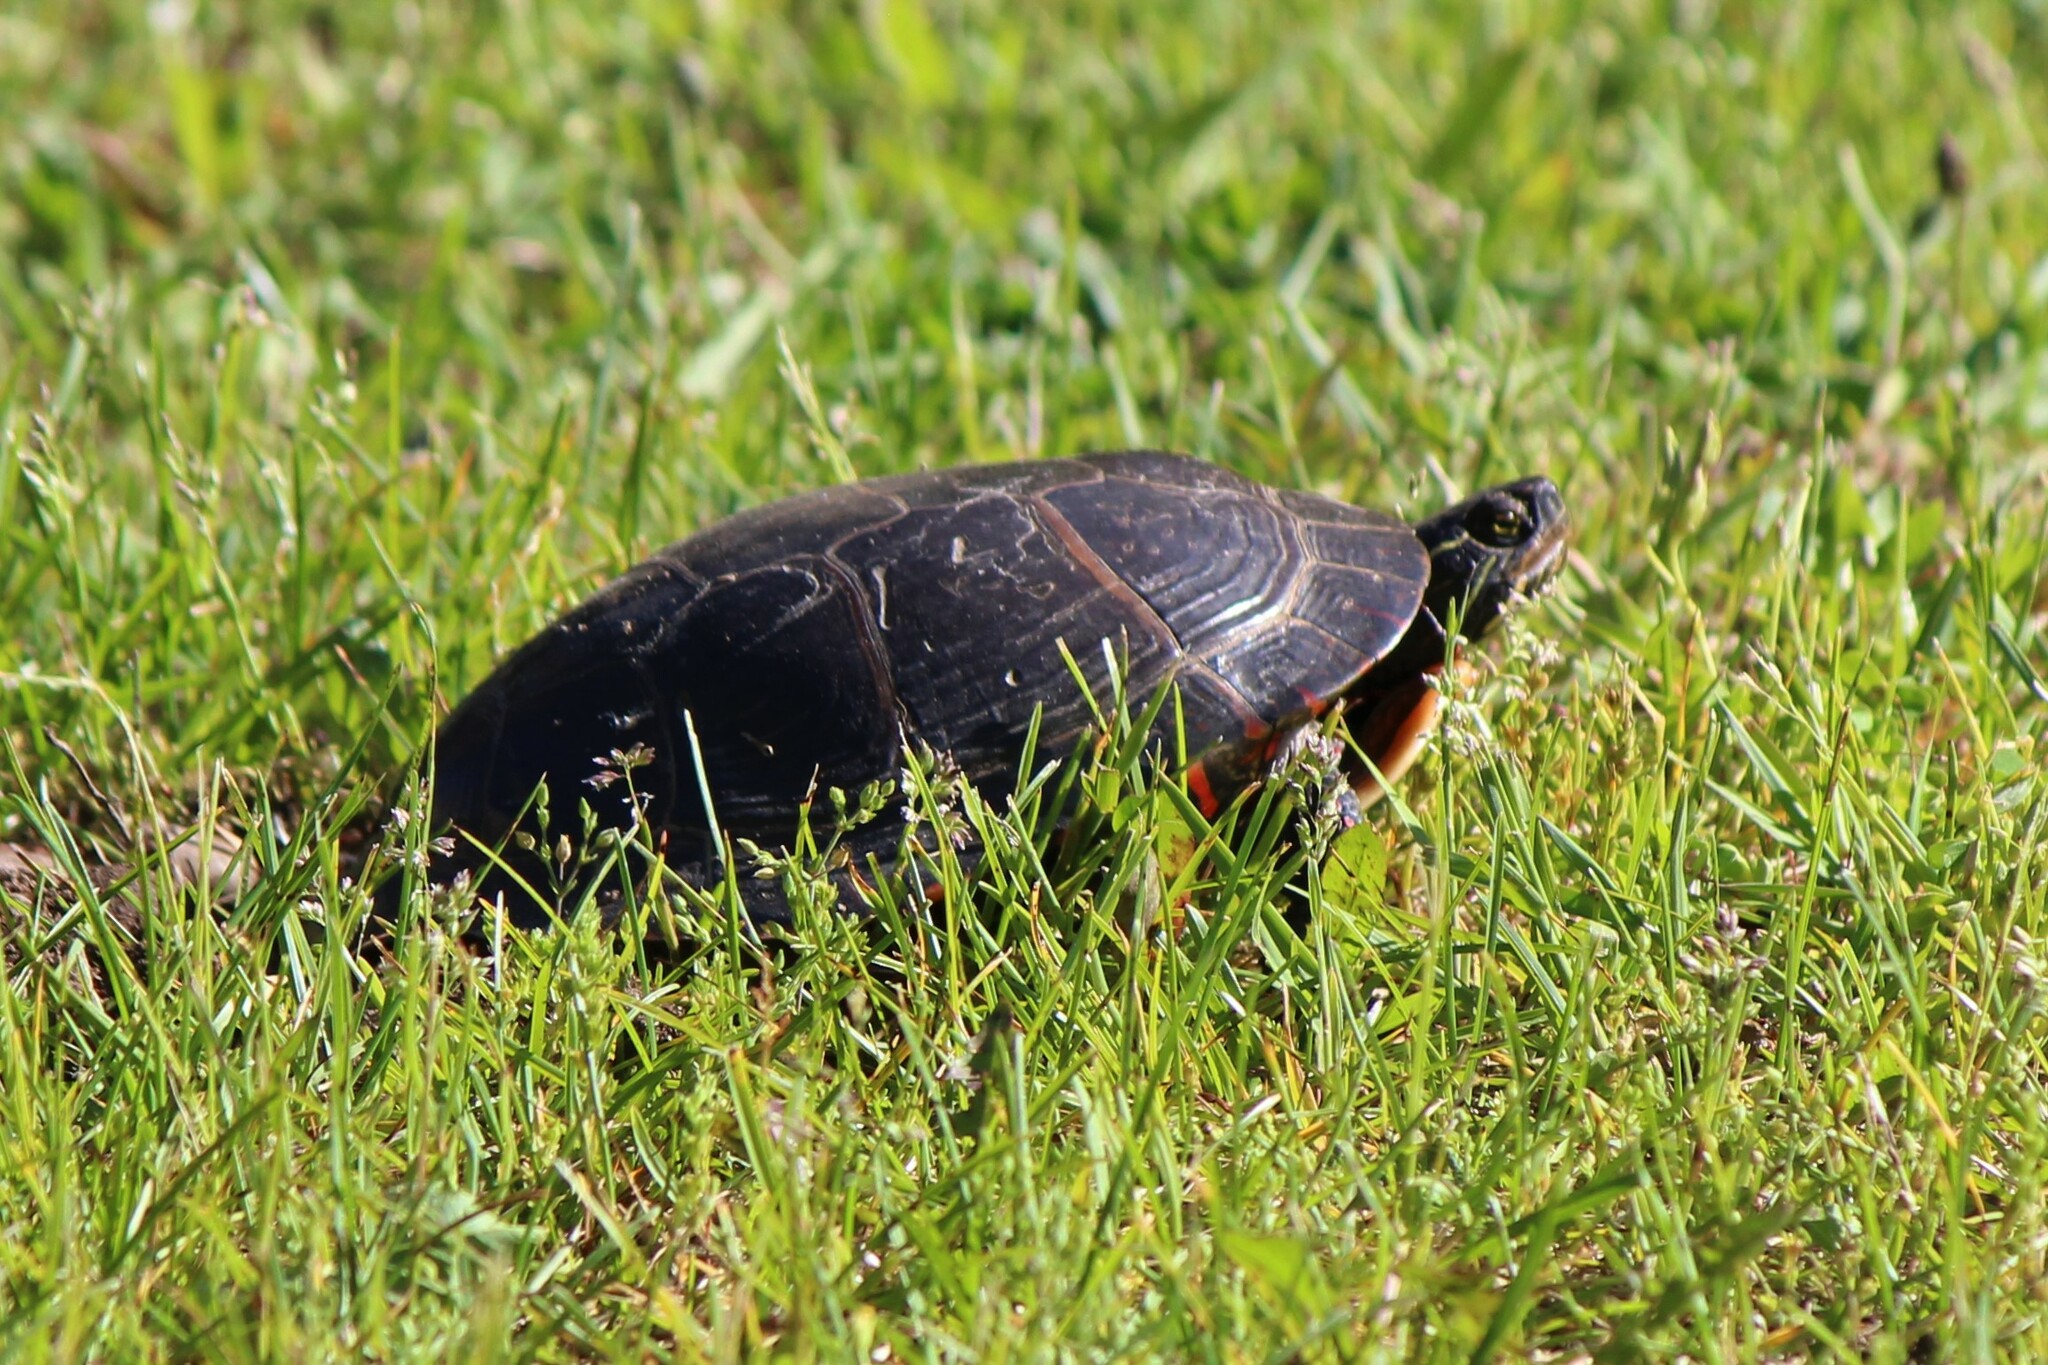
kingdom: Animalia
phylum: Chordata
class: Testudines
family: Emydidae
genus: Chrysemys
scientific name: Chrysemys picta
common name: Painted turtle
